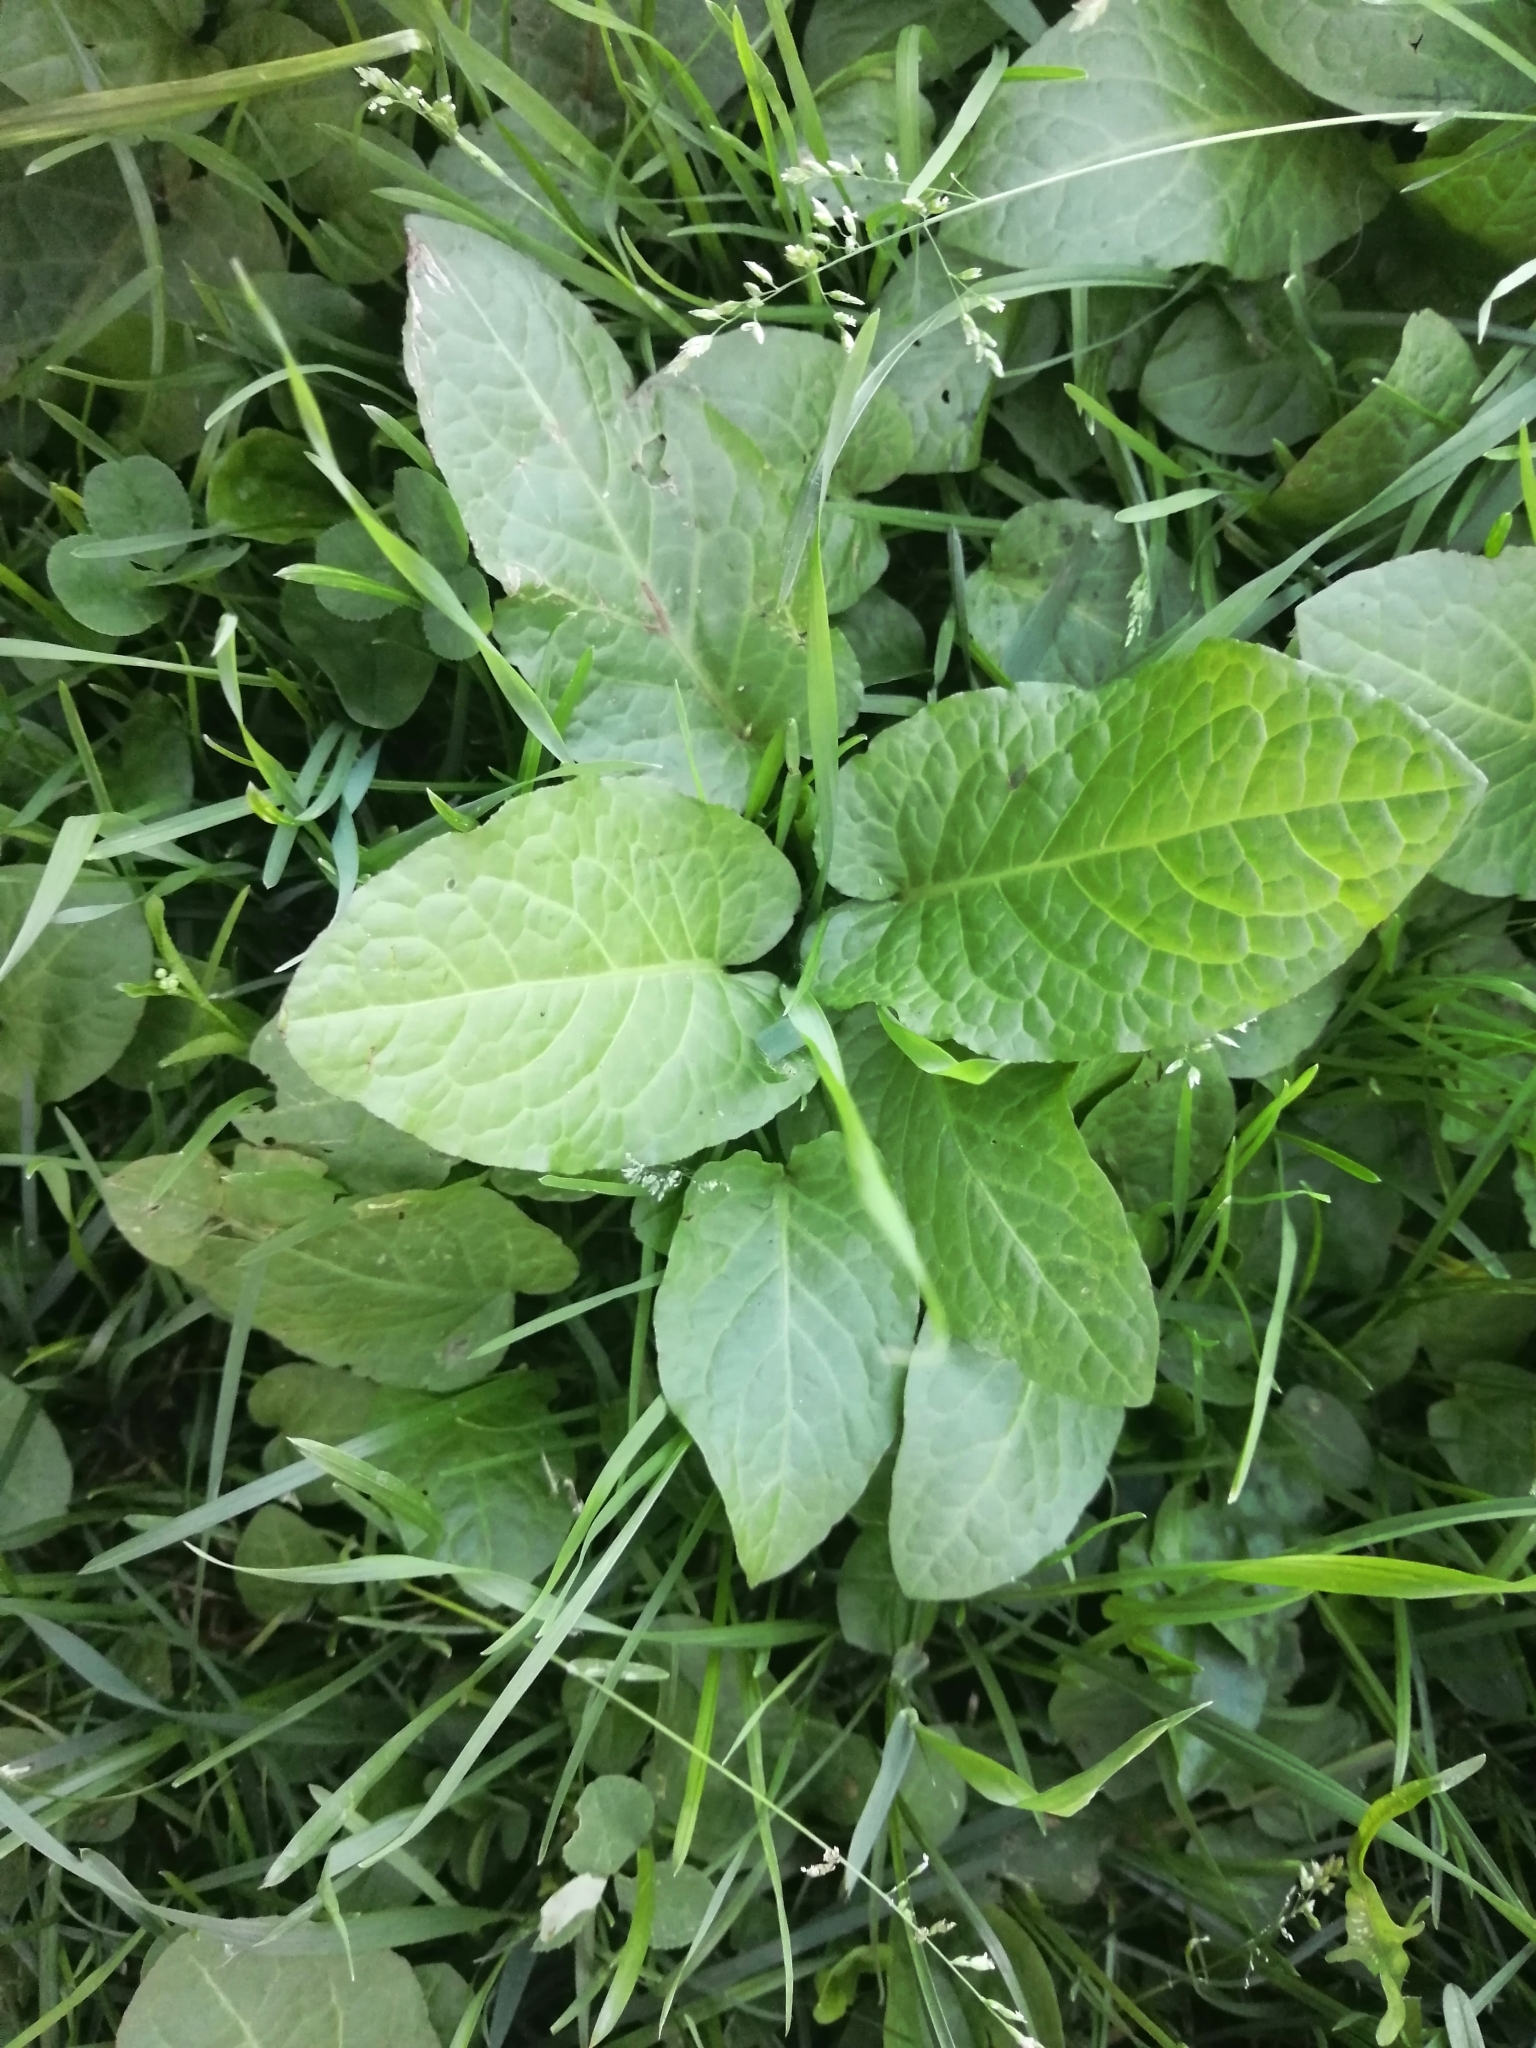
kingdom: Plantae
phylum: Tracheophyta
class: Magnoliopsida
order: Caryophyllales
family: Polygonaceae
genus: Rumex
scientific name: Rumex obtusifolius
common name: Bitter dock
